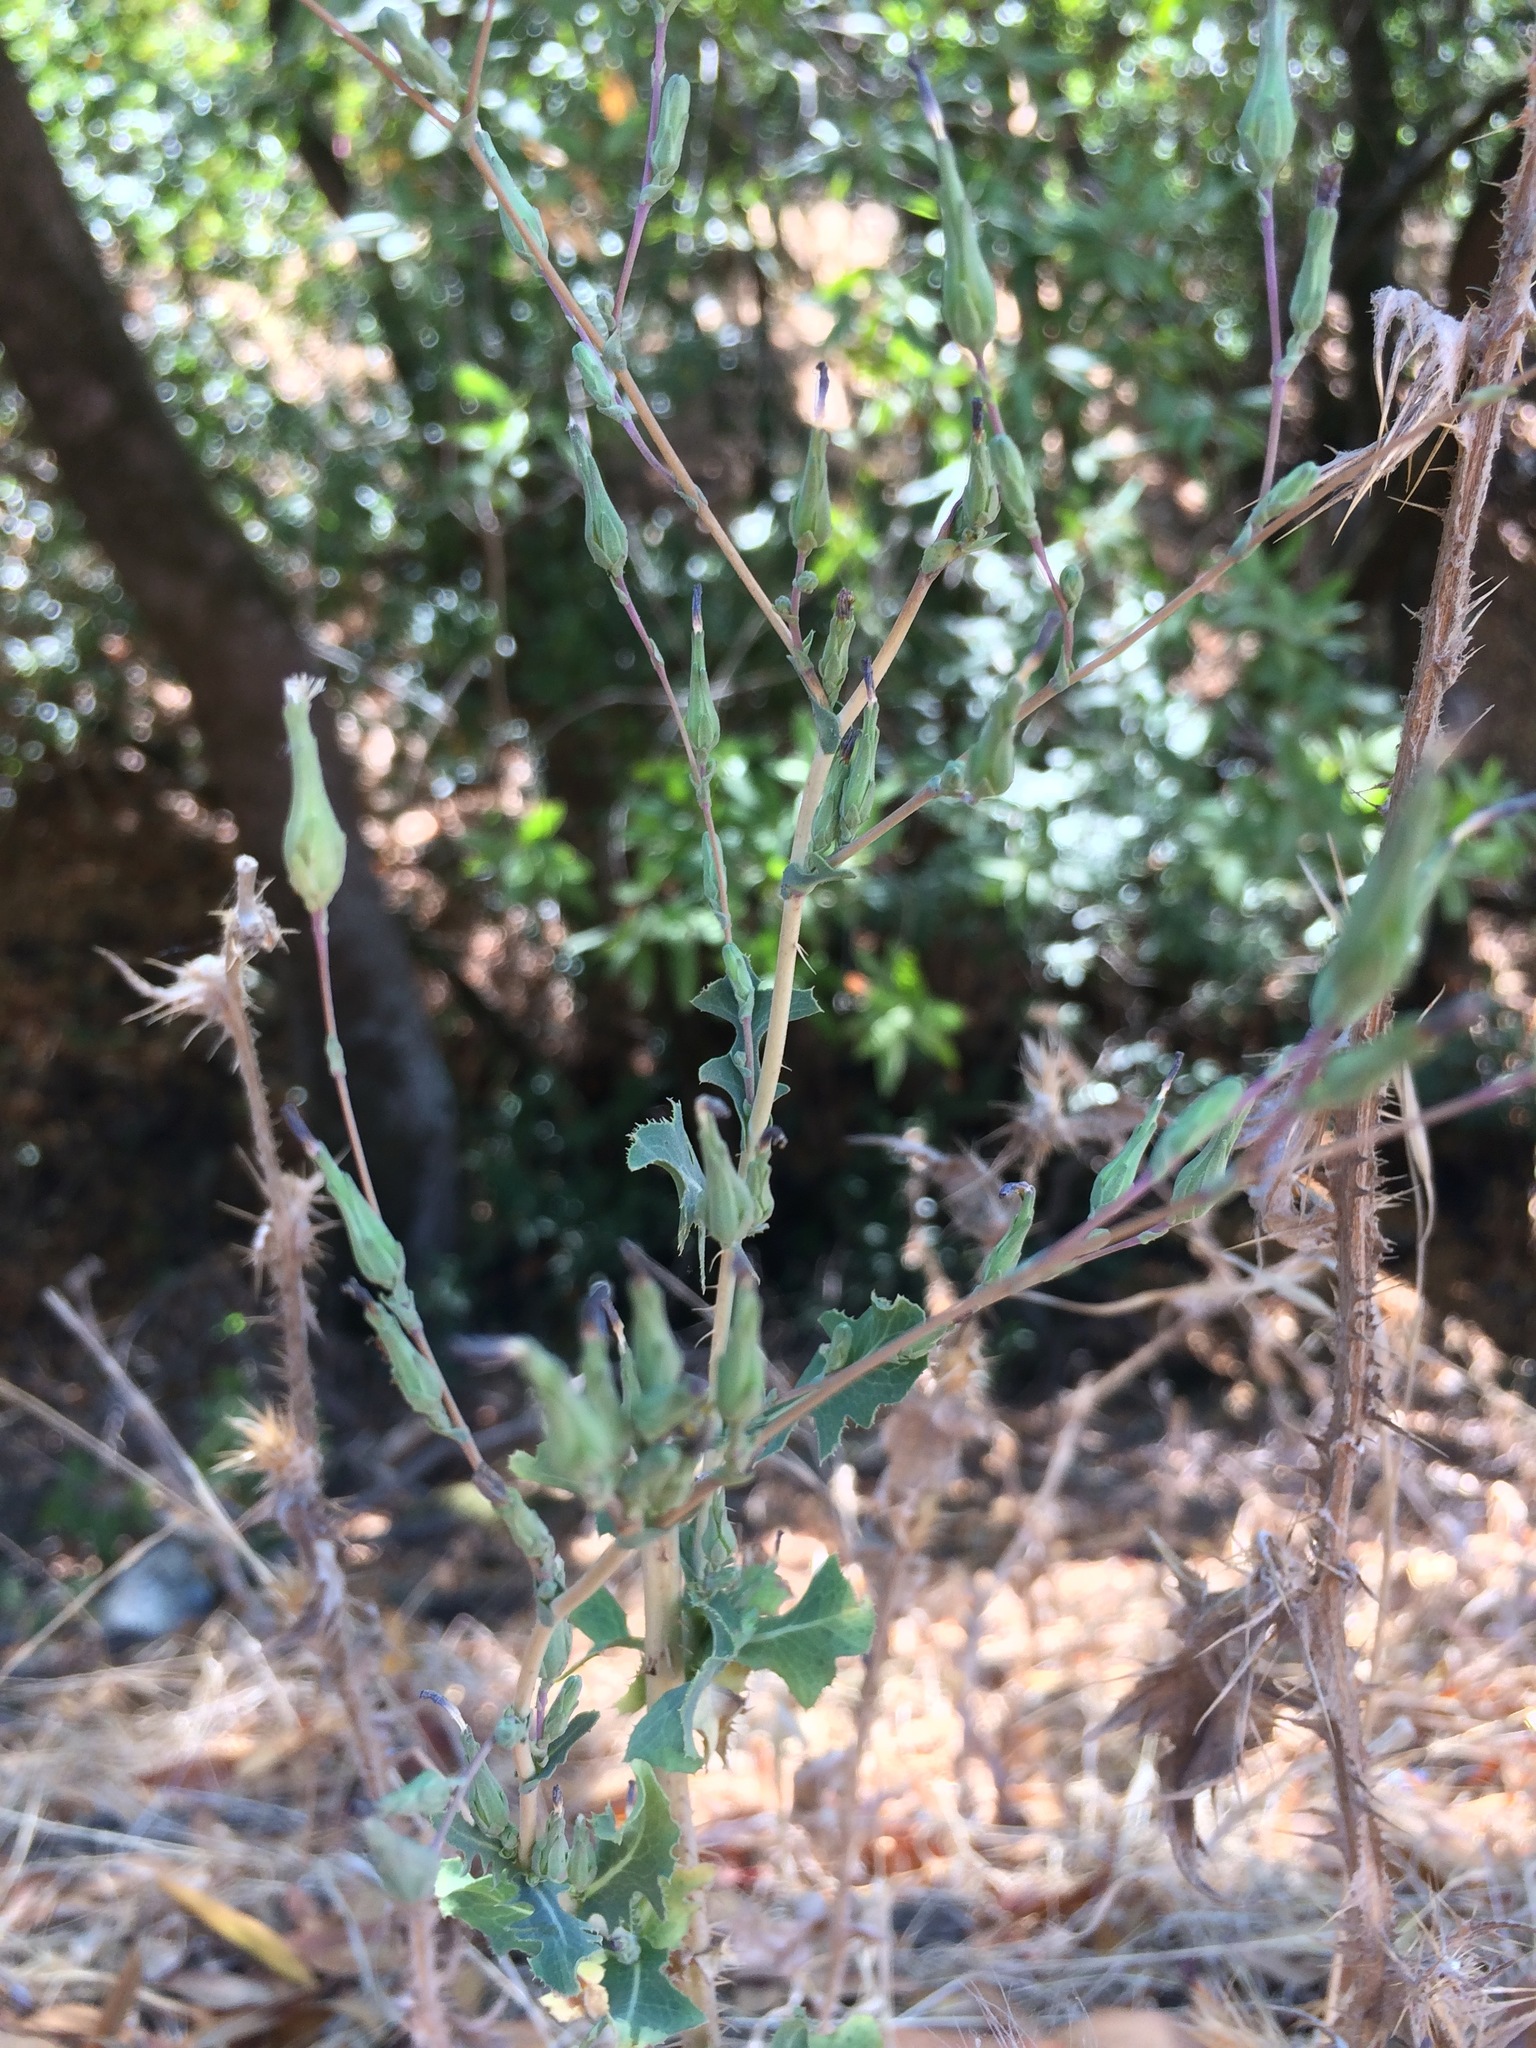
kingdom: Plantae
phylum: Tracheophyta
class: Magnoliopsida
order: Asterales
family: Asteraceae
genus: Lactuca
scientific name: Lactuca serriola
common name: Prickly lettuce
